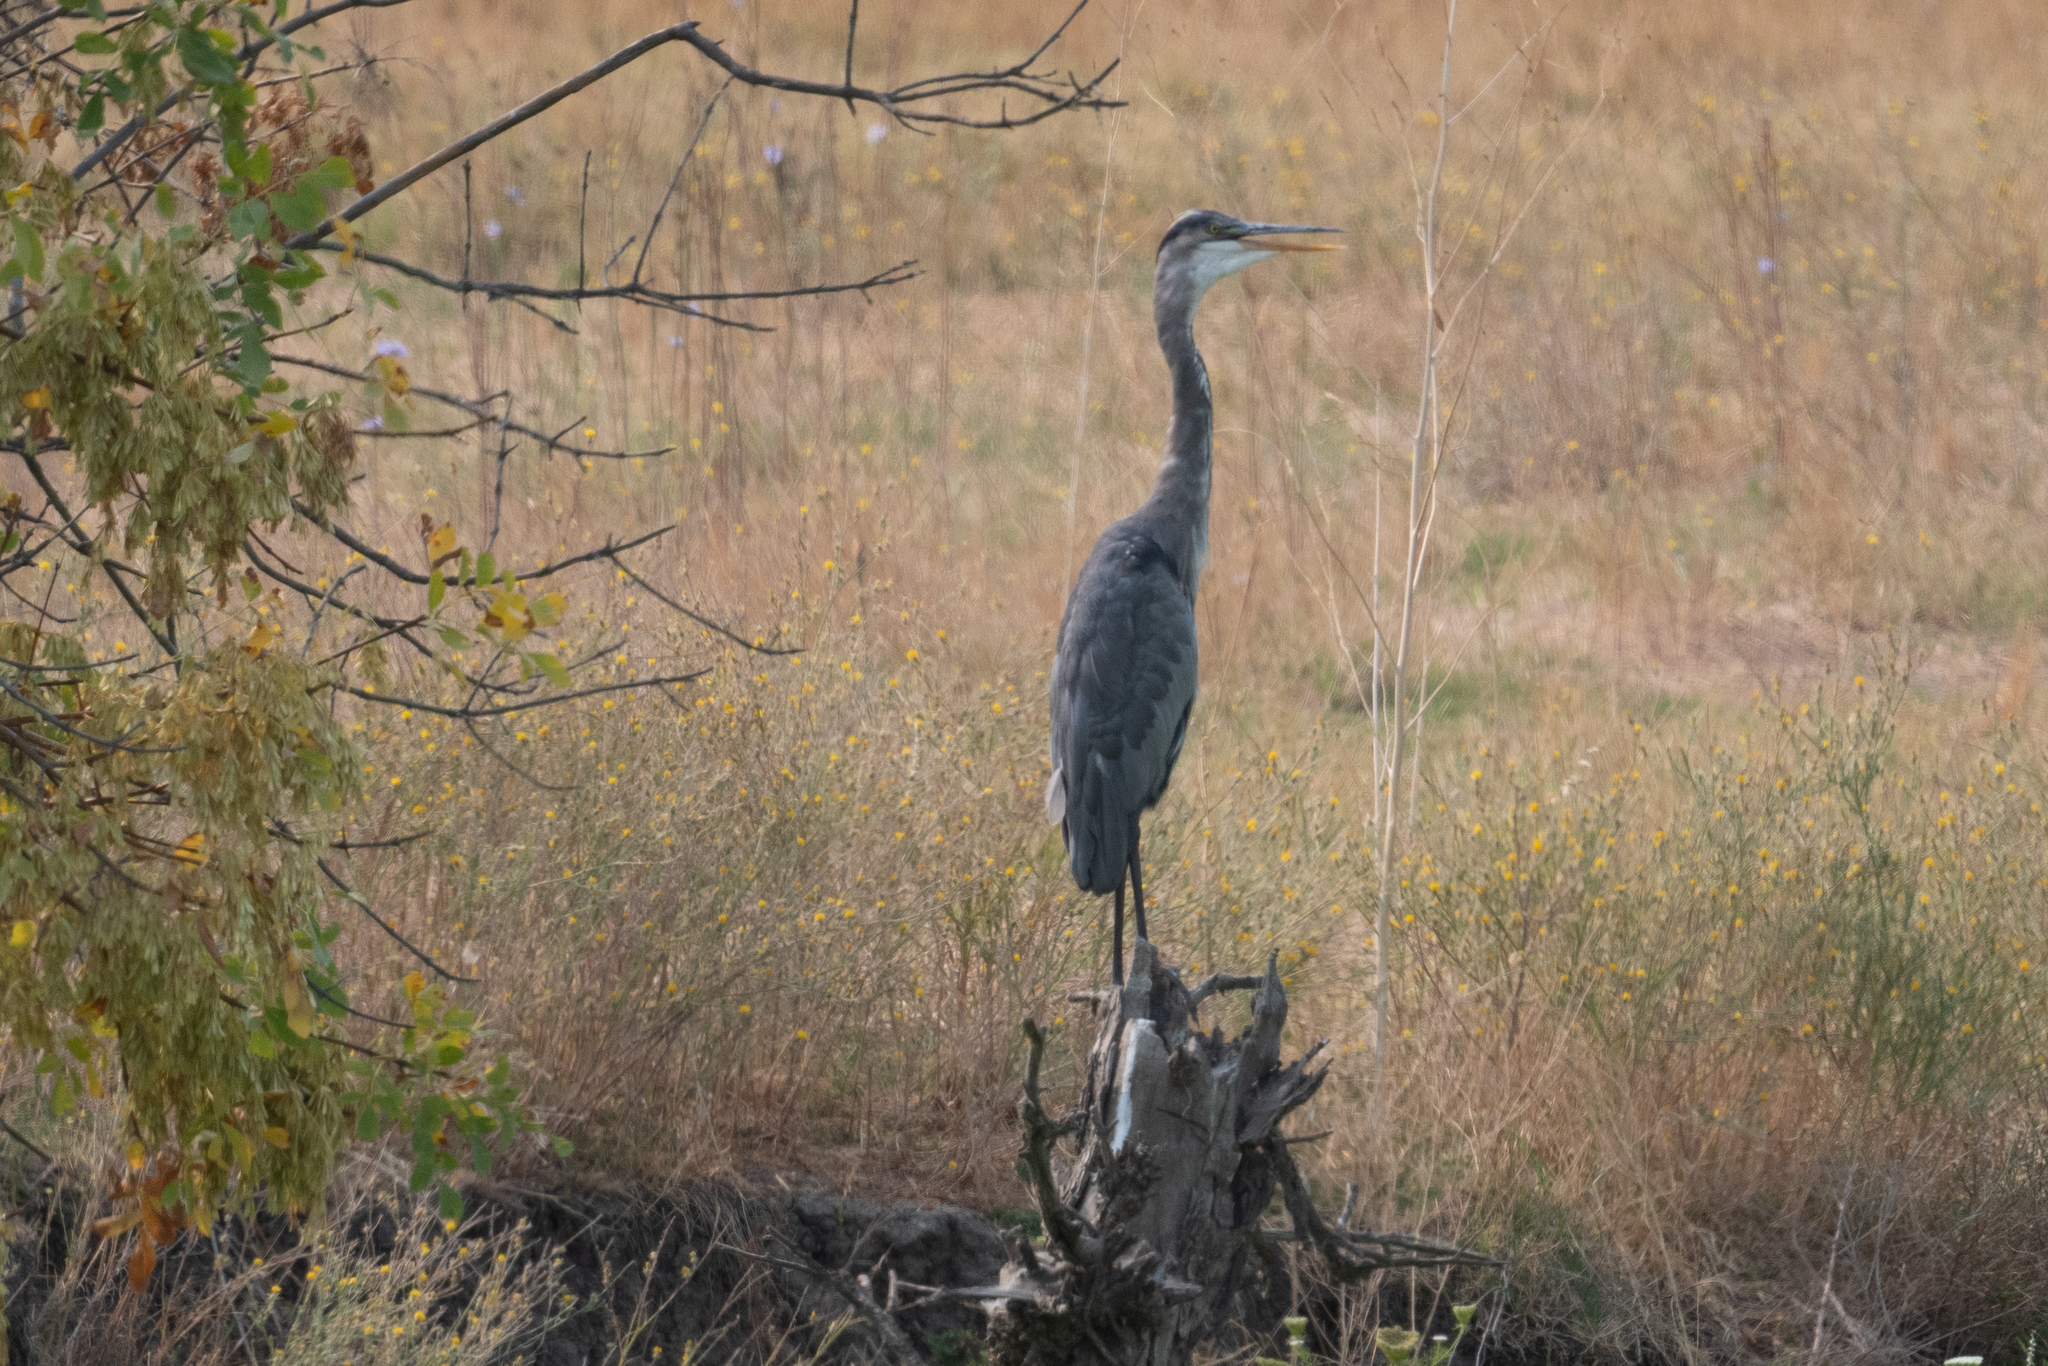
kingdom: Animalia
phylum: Chordata
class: Aves
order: Pelecaniformes
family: Ardeidae
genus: Ardea
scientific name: Ardea herodias
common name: Great blue heron
